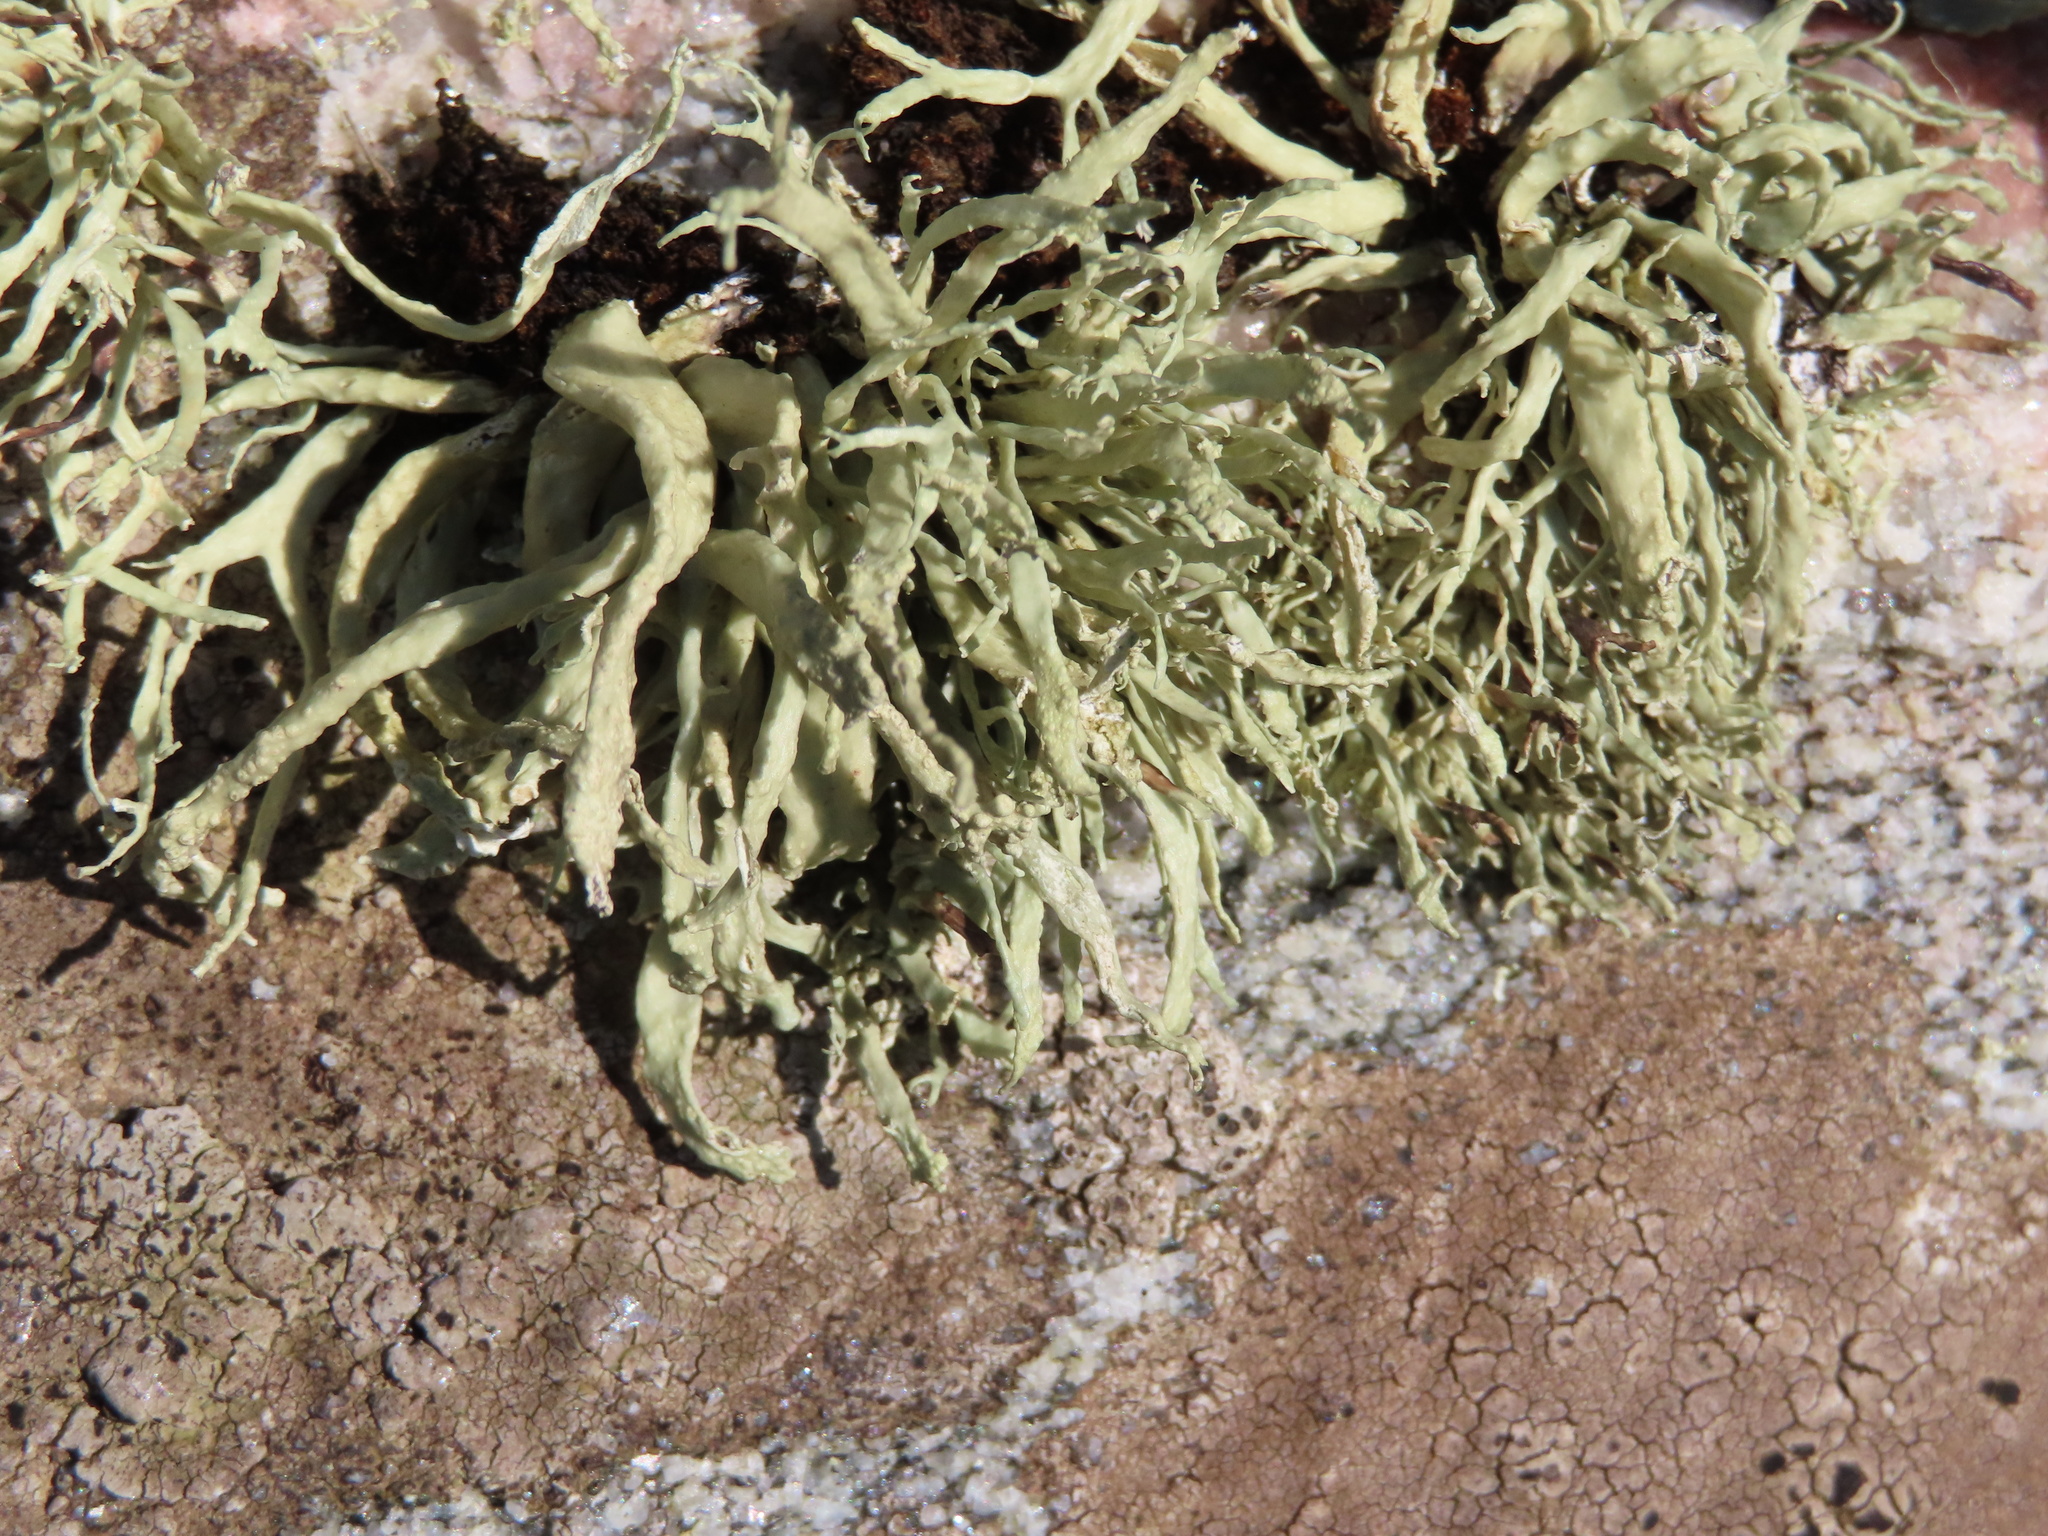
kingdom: Fungi
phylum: Ascomycota
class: Lecanoromycetes
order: Lecanorales
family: Ramalinaceae
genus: Ramalina
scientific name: Ramalina siliquosa
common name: Sea ivory
